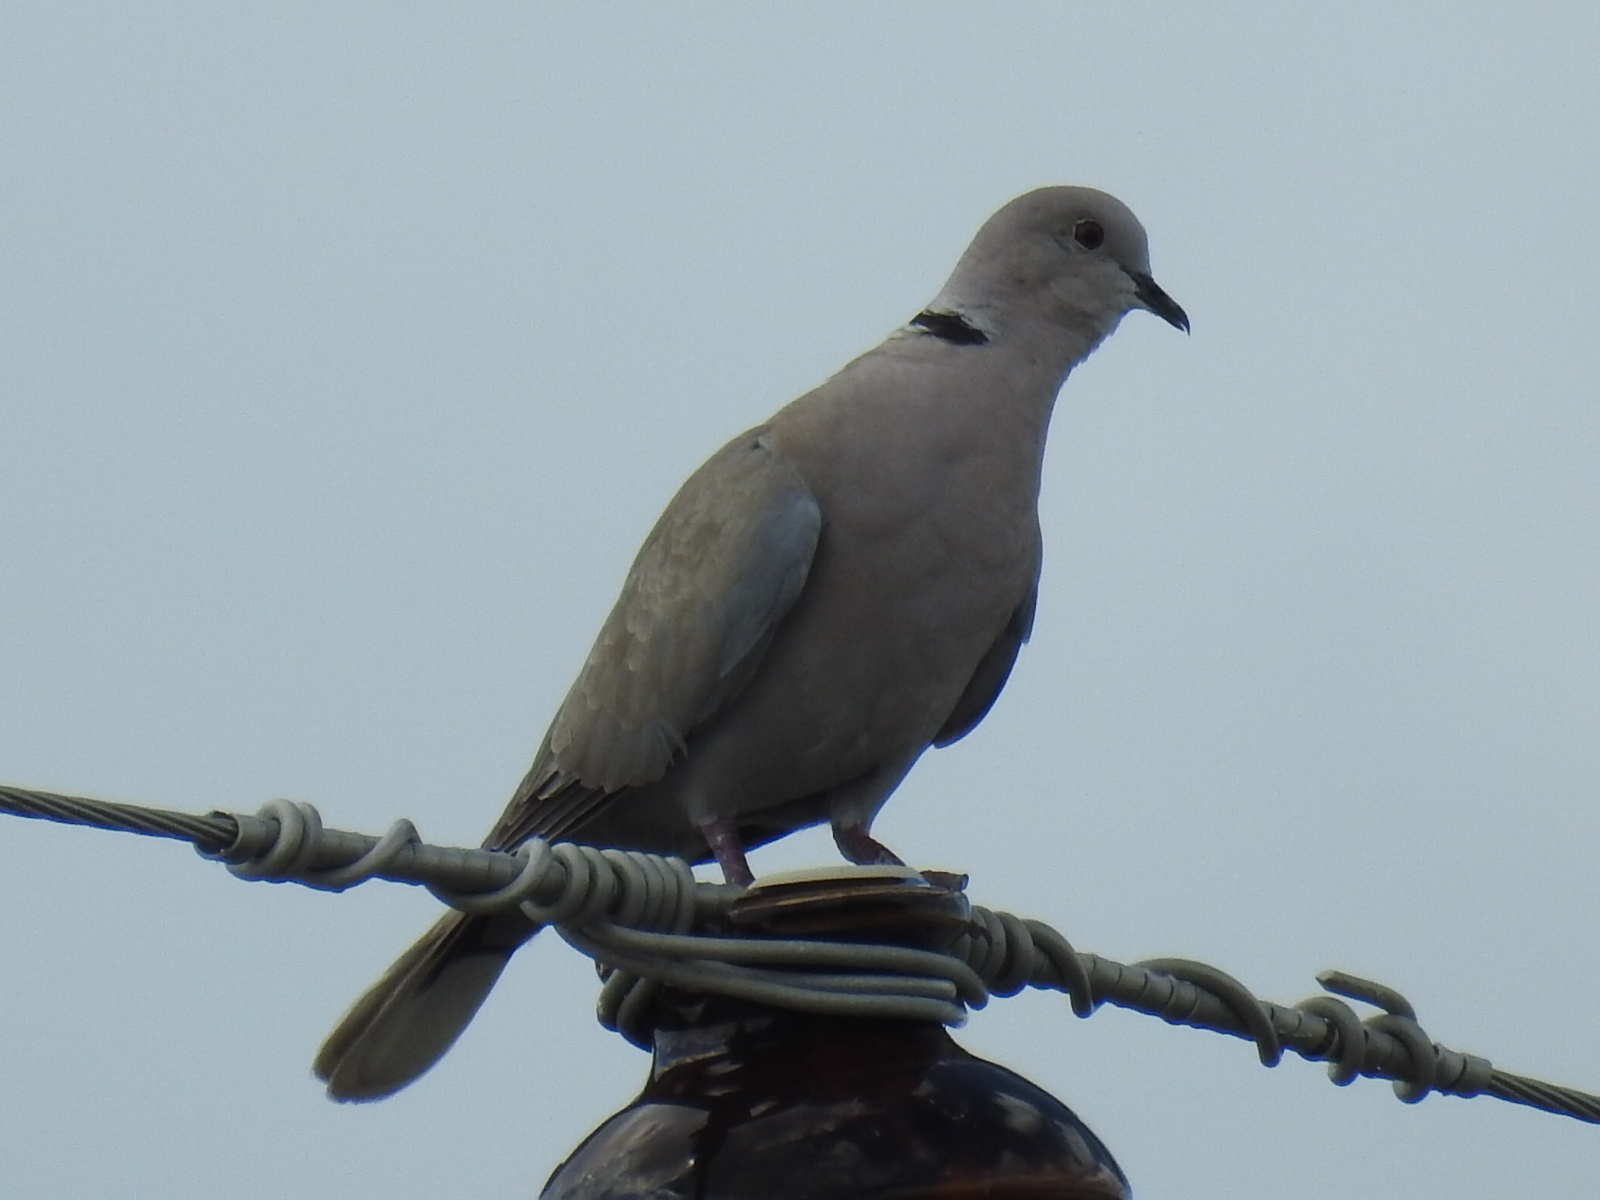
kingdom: Animalia
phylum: Chordata
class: Aves
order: Columbiformes
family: Columbidae
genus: Streptopelia
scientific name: Streptopelia decaocto
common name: Eurasian collared dove
